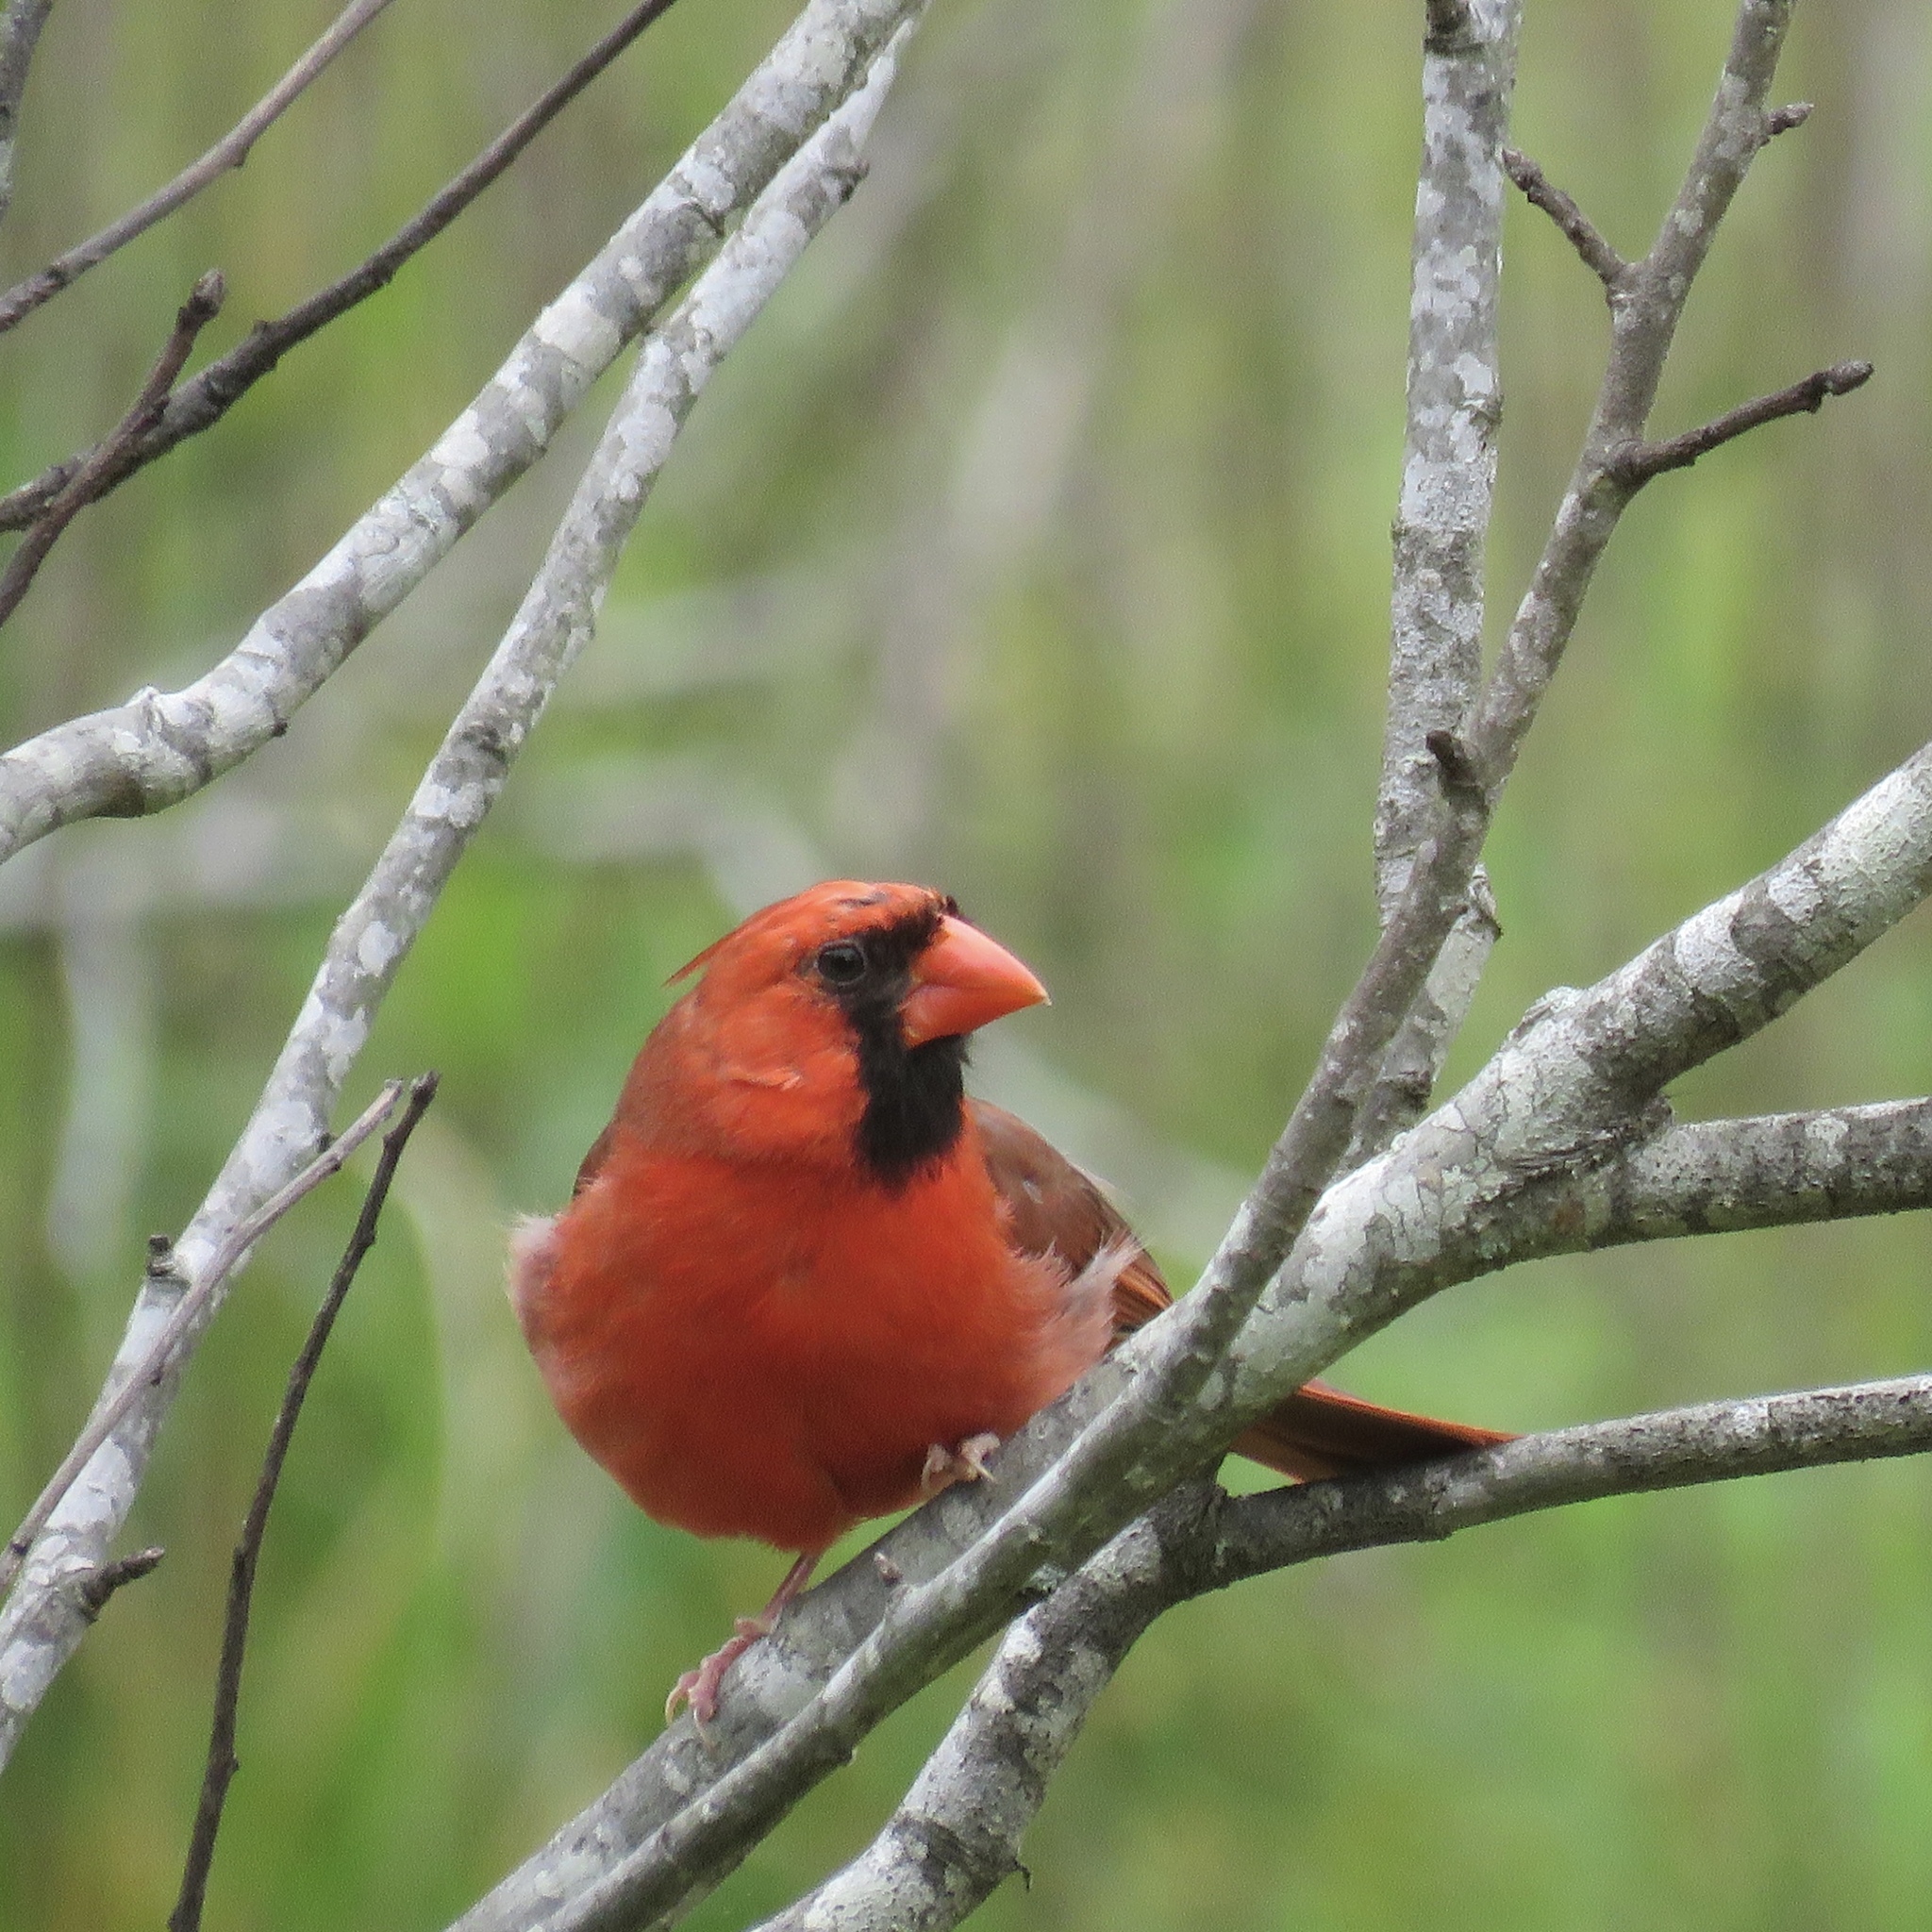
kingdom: Animalia
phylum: Chordata
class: Aves
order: Passeriformes
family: Cardinalidae
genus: Cardinalis
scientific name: Cardinalis cardinalis
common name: Northern cardinal
